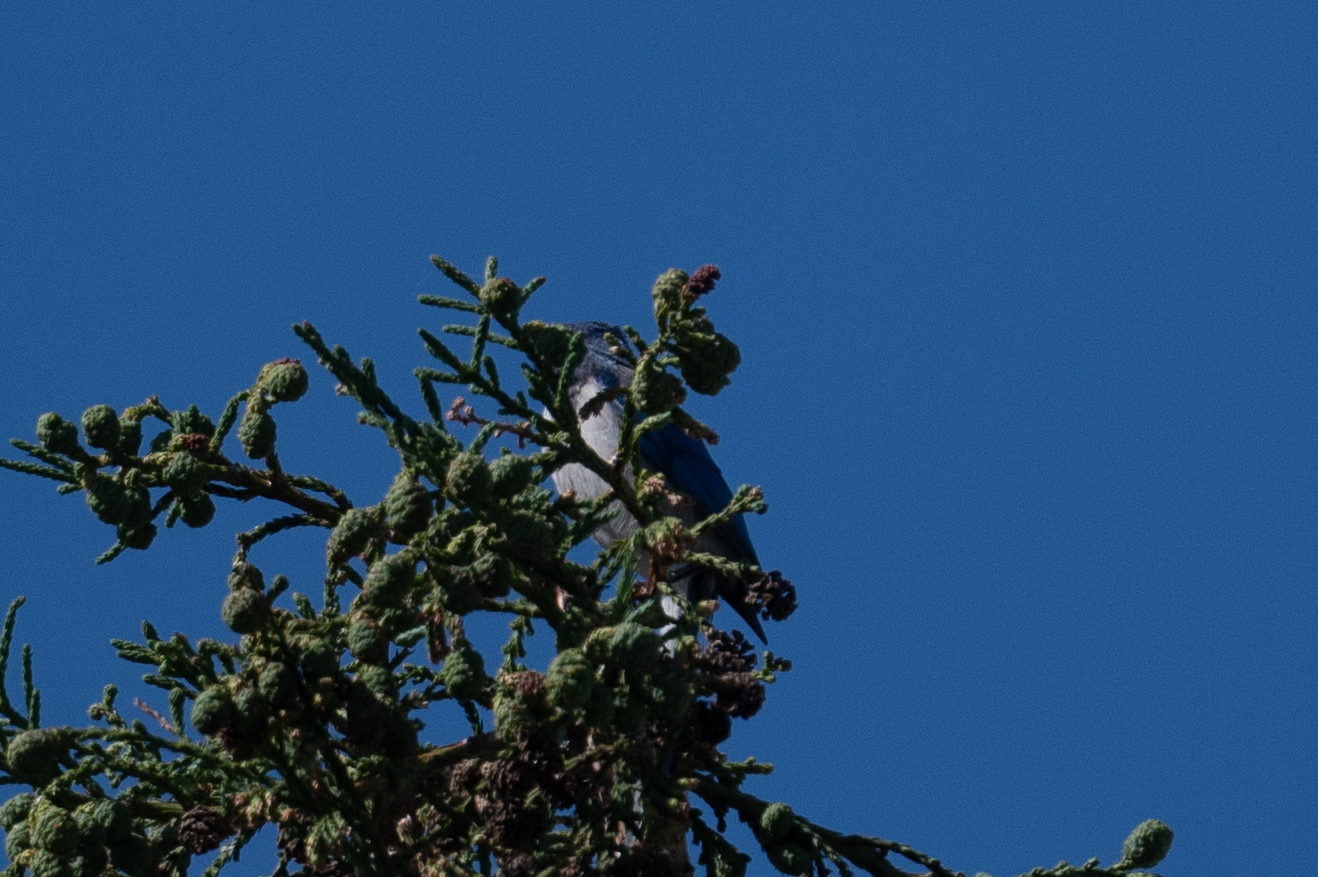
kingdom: Animalia
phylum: Chordata
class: Aves
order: Passeriformes
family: Corvidae
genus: Aphelocoma
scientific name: Aphelocoma californica
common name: California scrub-jay
